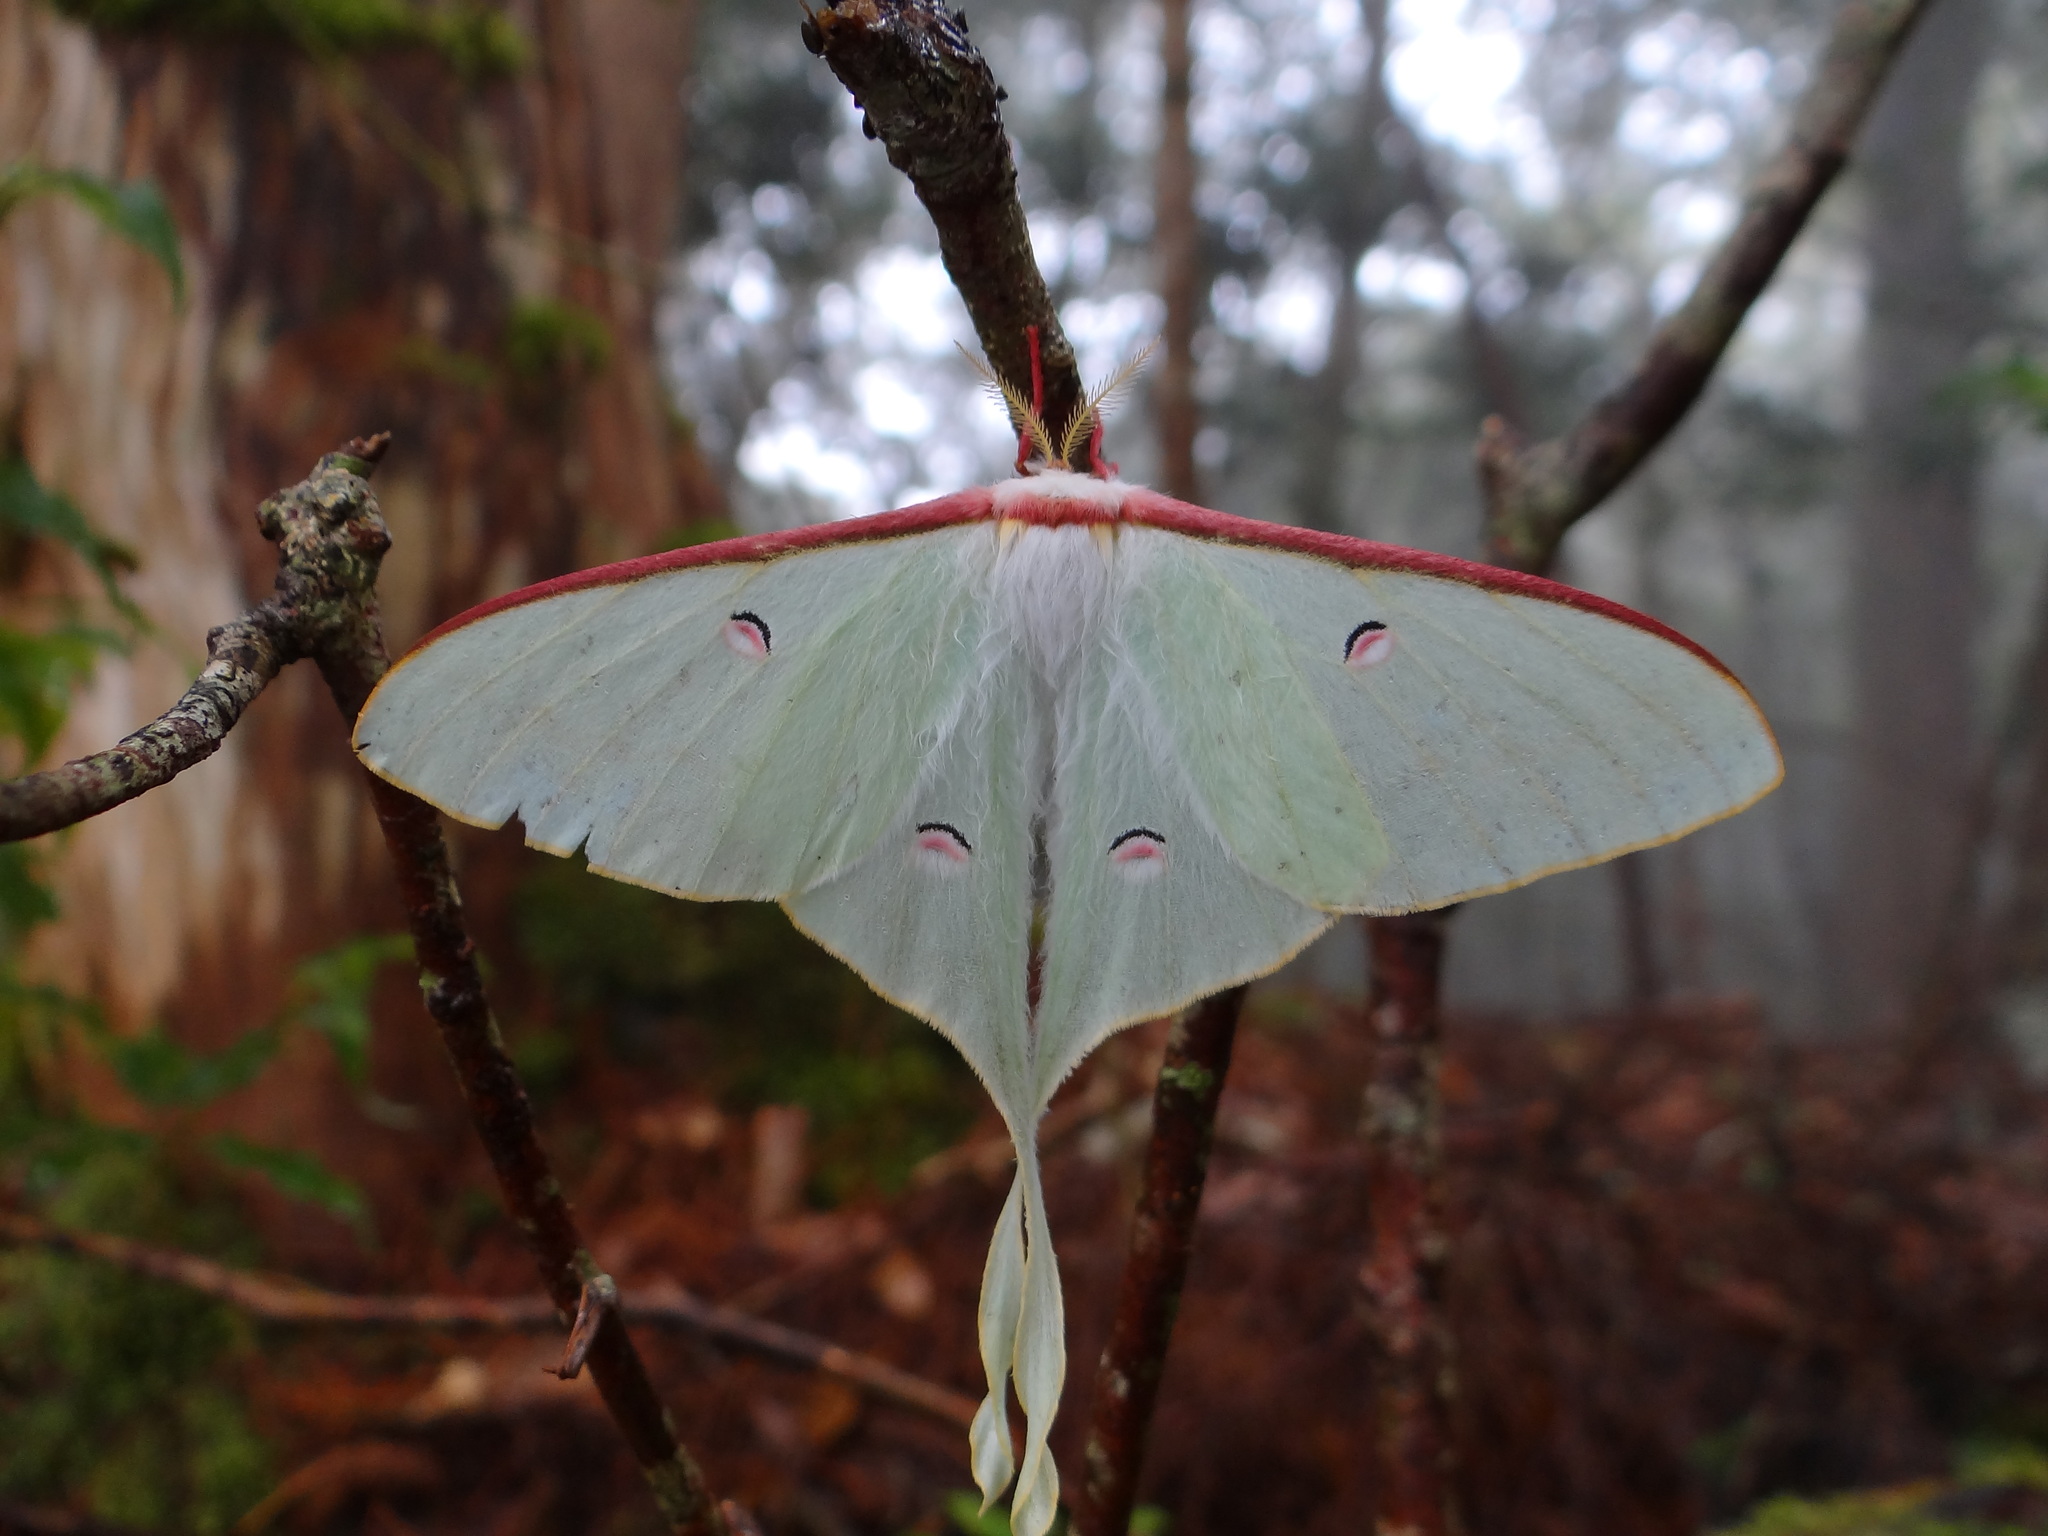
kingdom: Animalia
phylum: Arthropoda
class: Insecta
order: Lepidoptera
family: Saturniidae
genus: Actias
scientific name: Actias neidhoeferi
